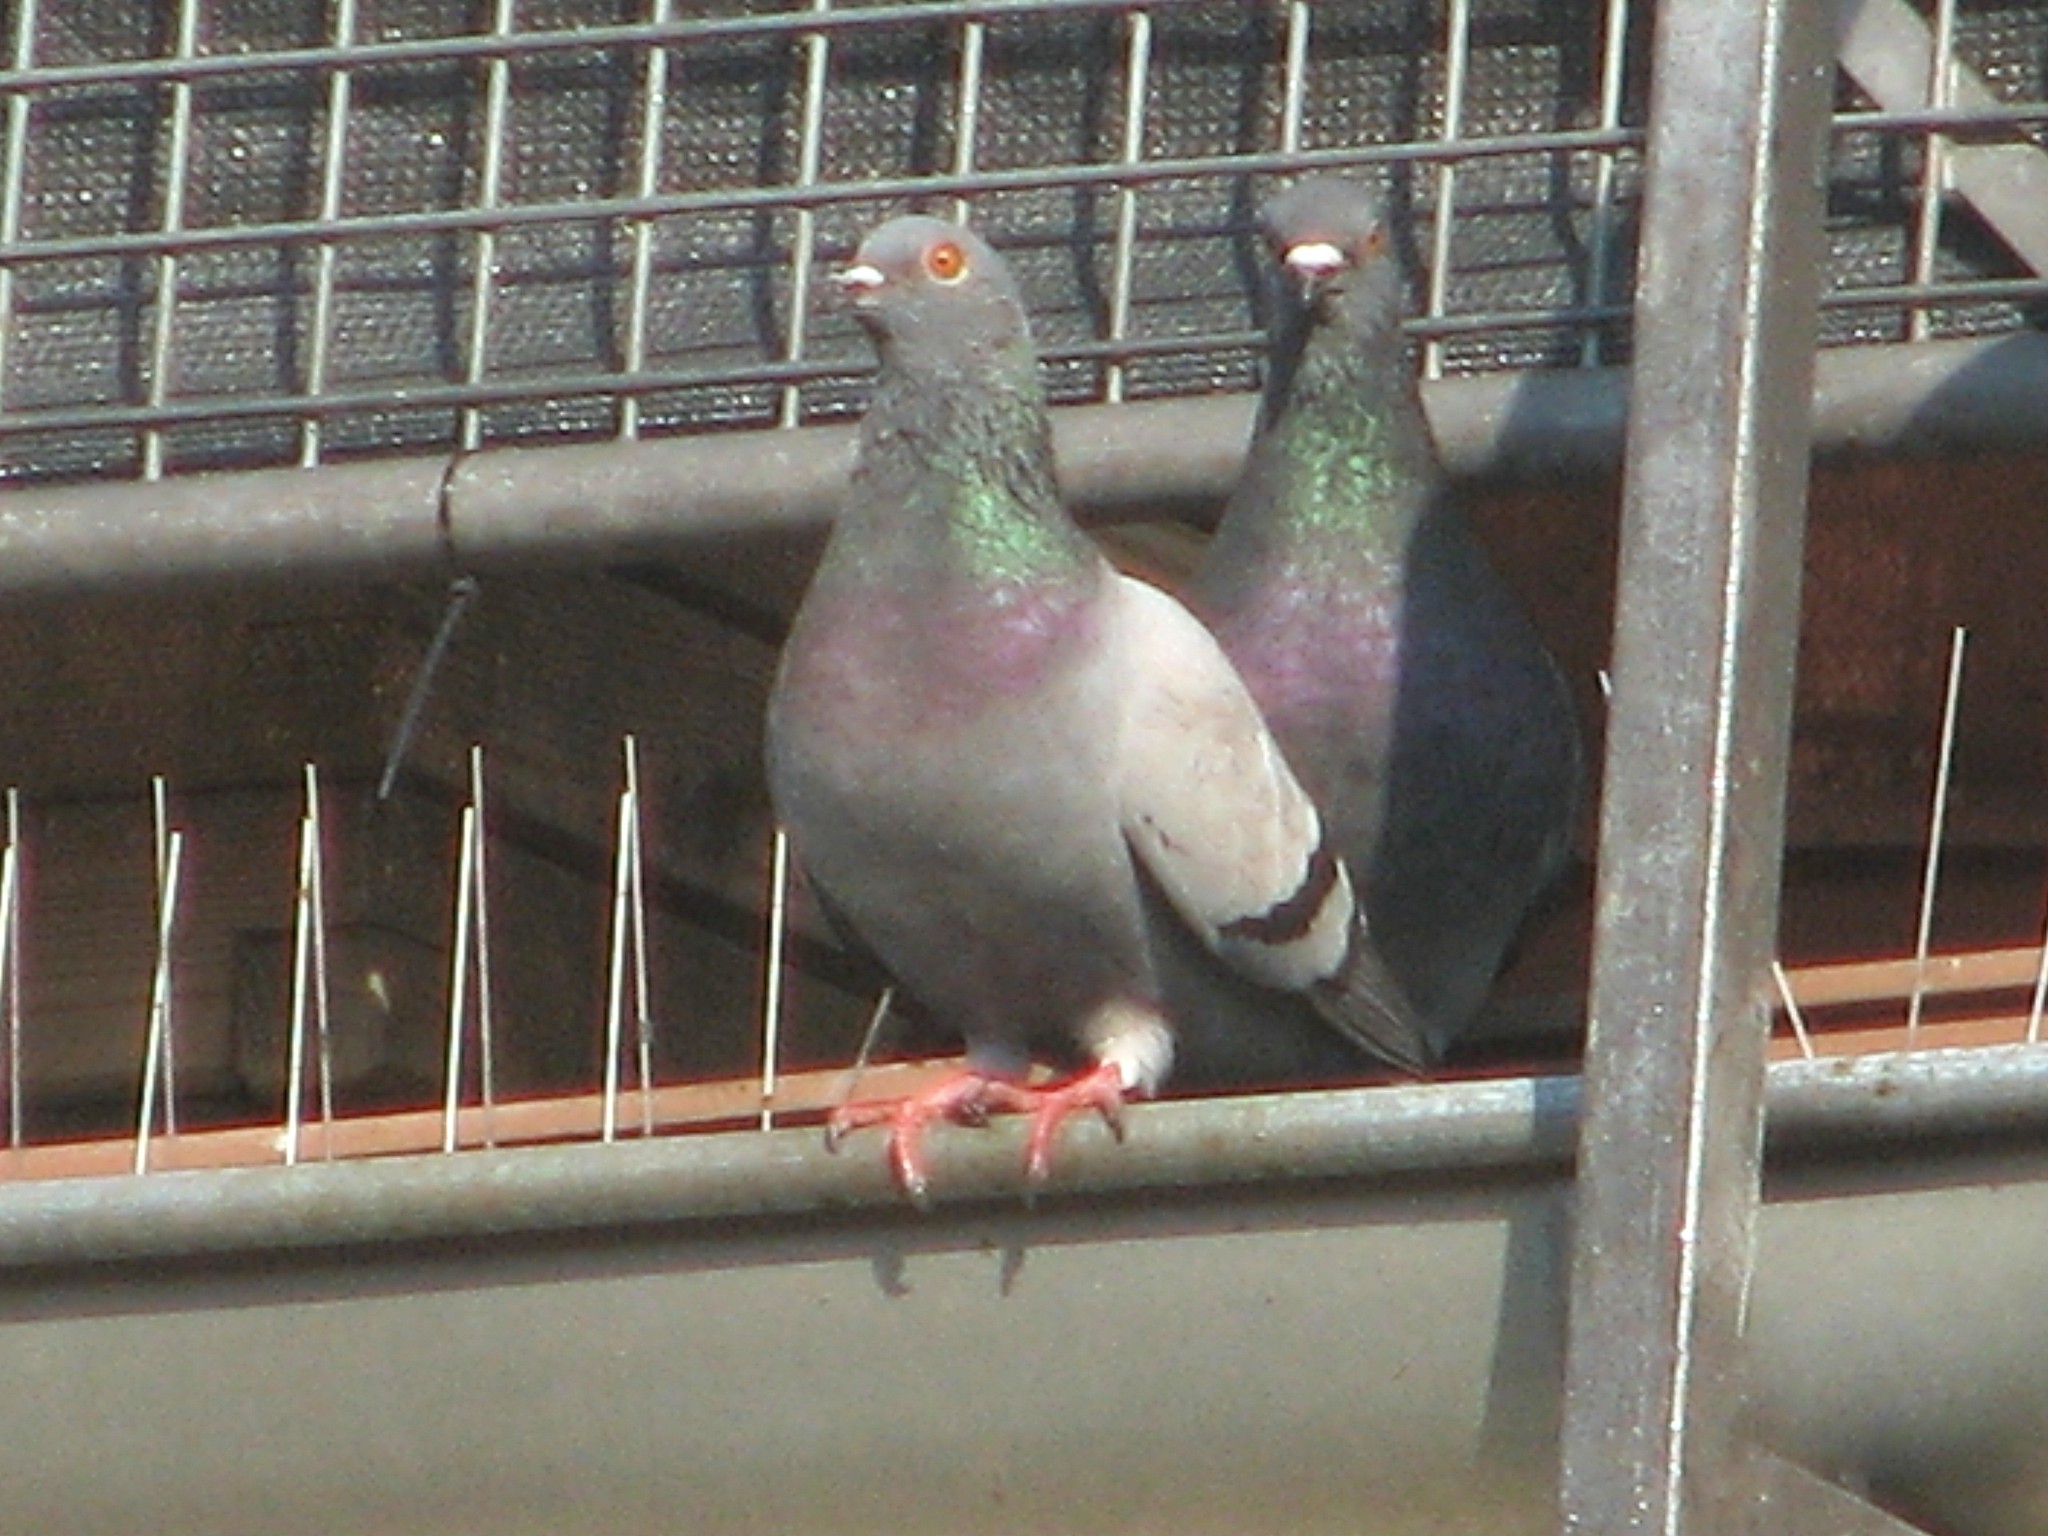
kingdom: Animalia
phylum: Chordata
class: Aves
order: Columbiformes
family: Columbidae
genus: Columba
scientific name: Columba livia
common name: Rock pigeon
